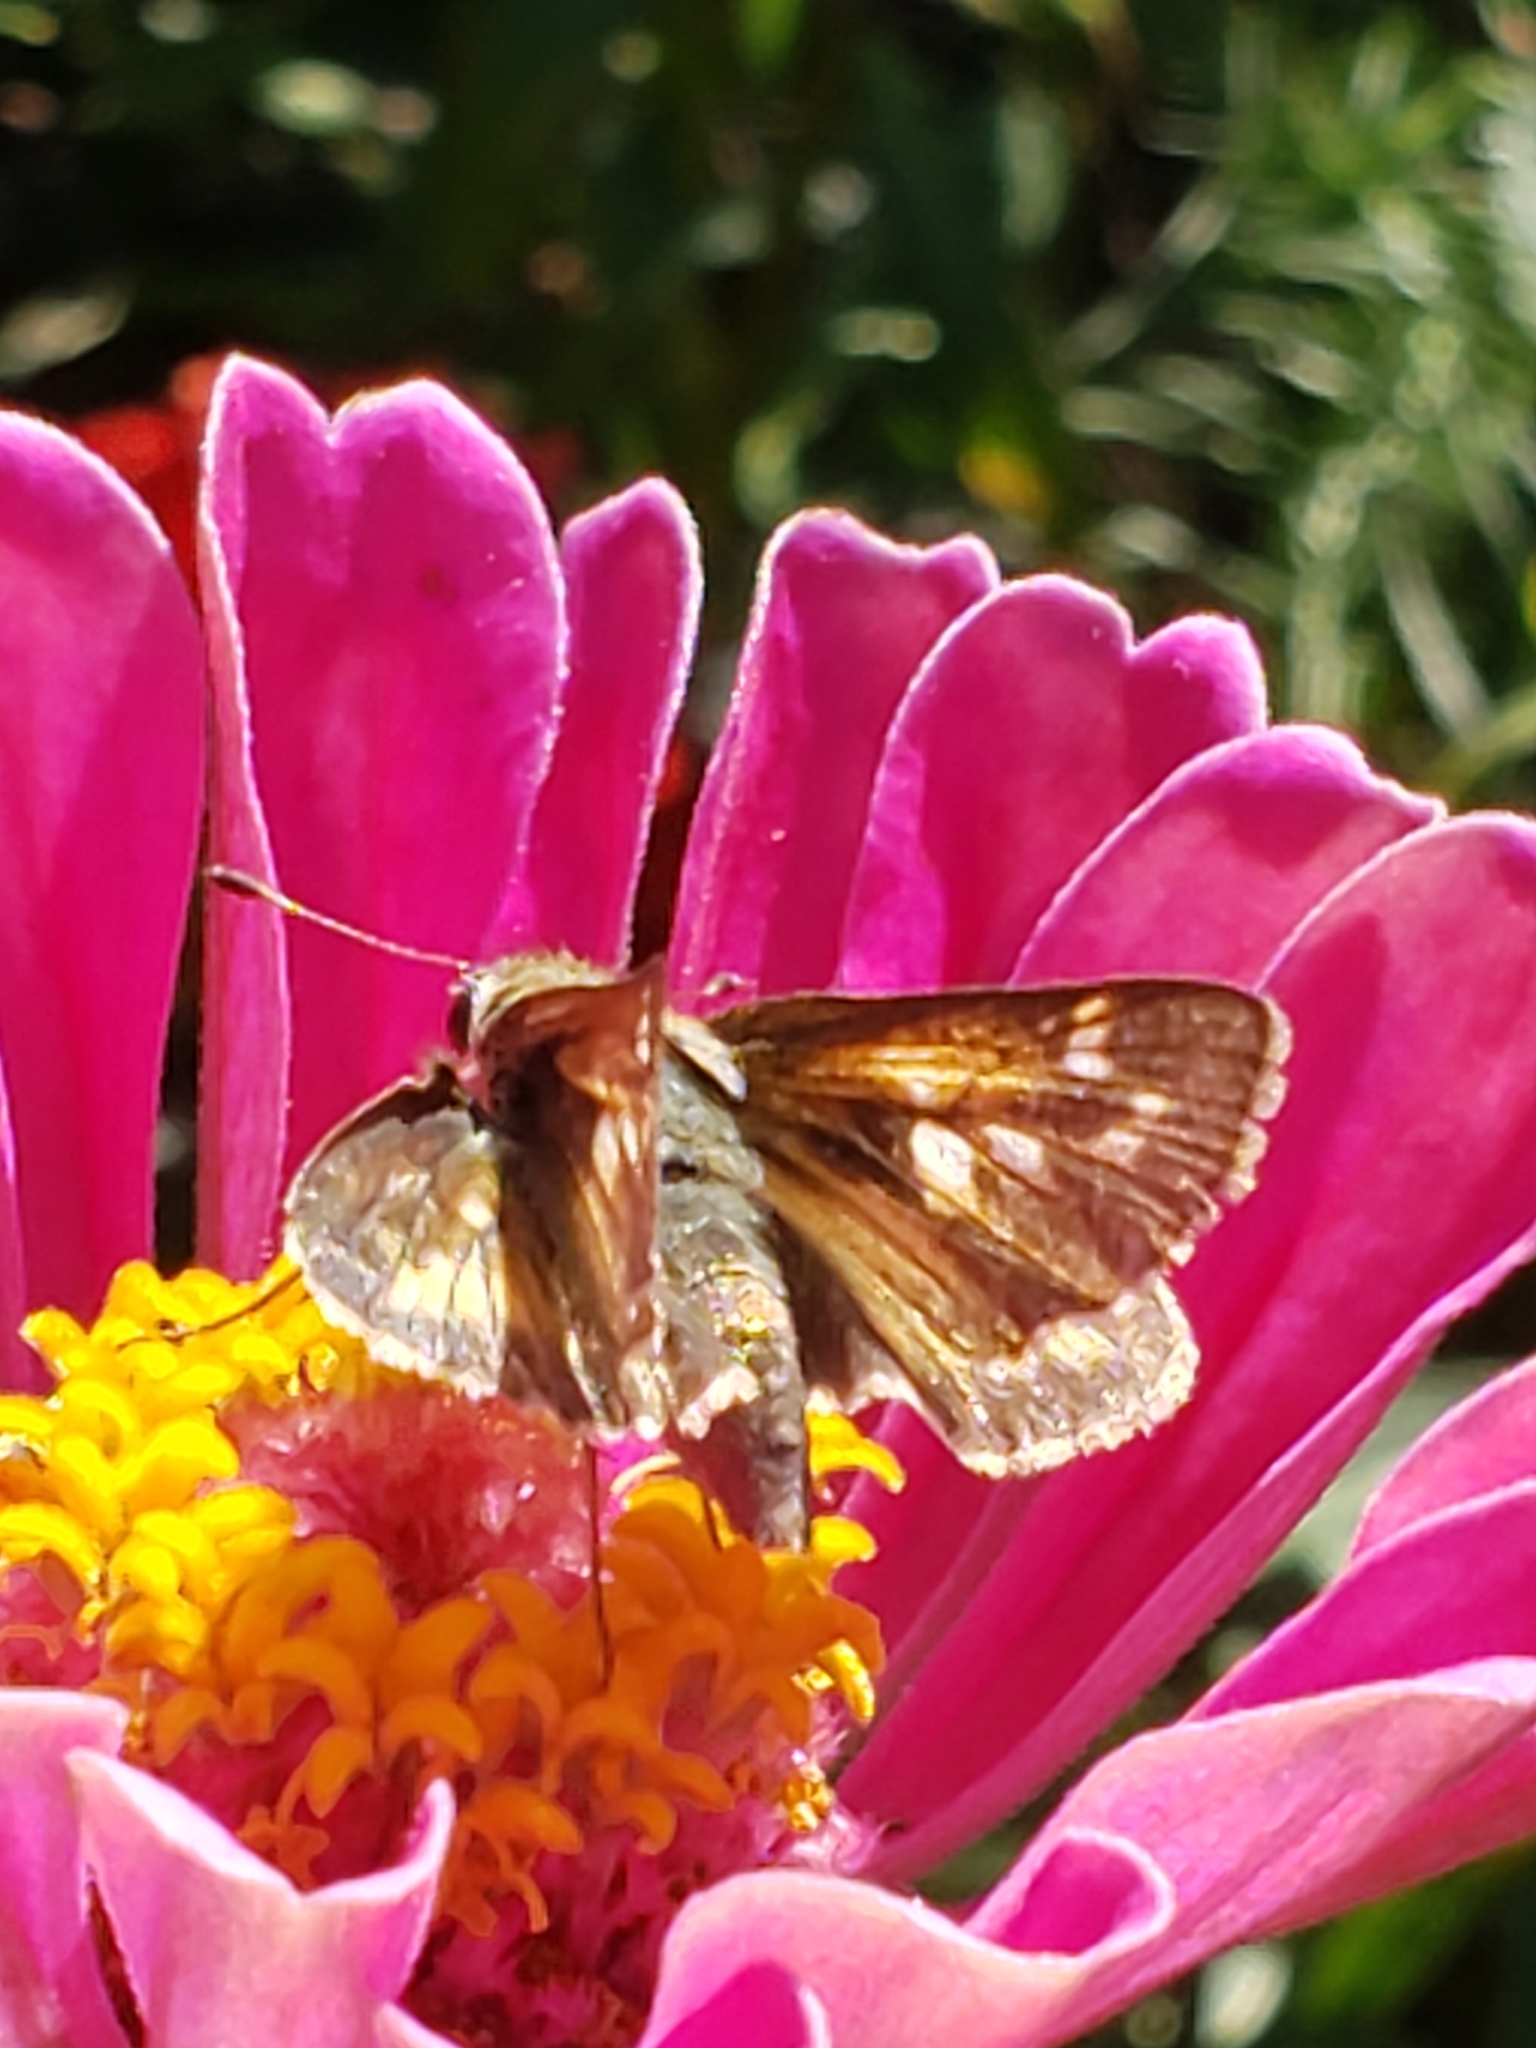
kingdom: Animalia
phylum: Arthropoda
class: Insecta
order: Lepidoptera
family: Hesperiidae
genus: Atalopedes
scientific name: Atalopedes
